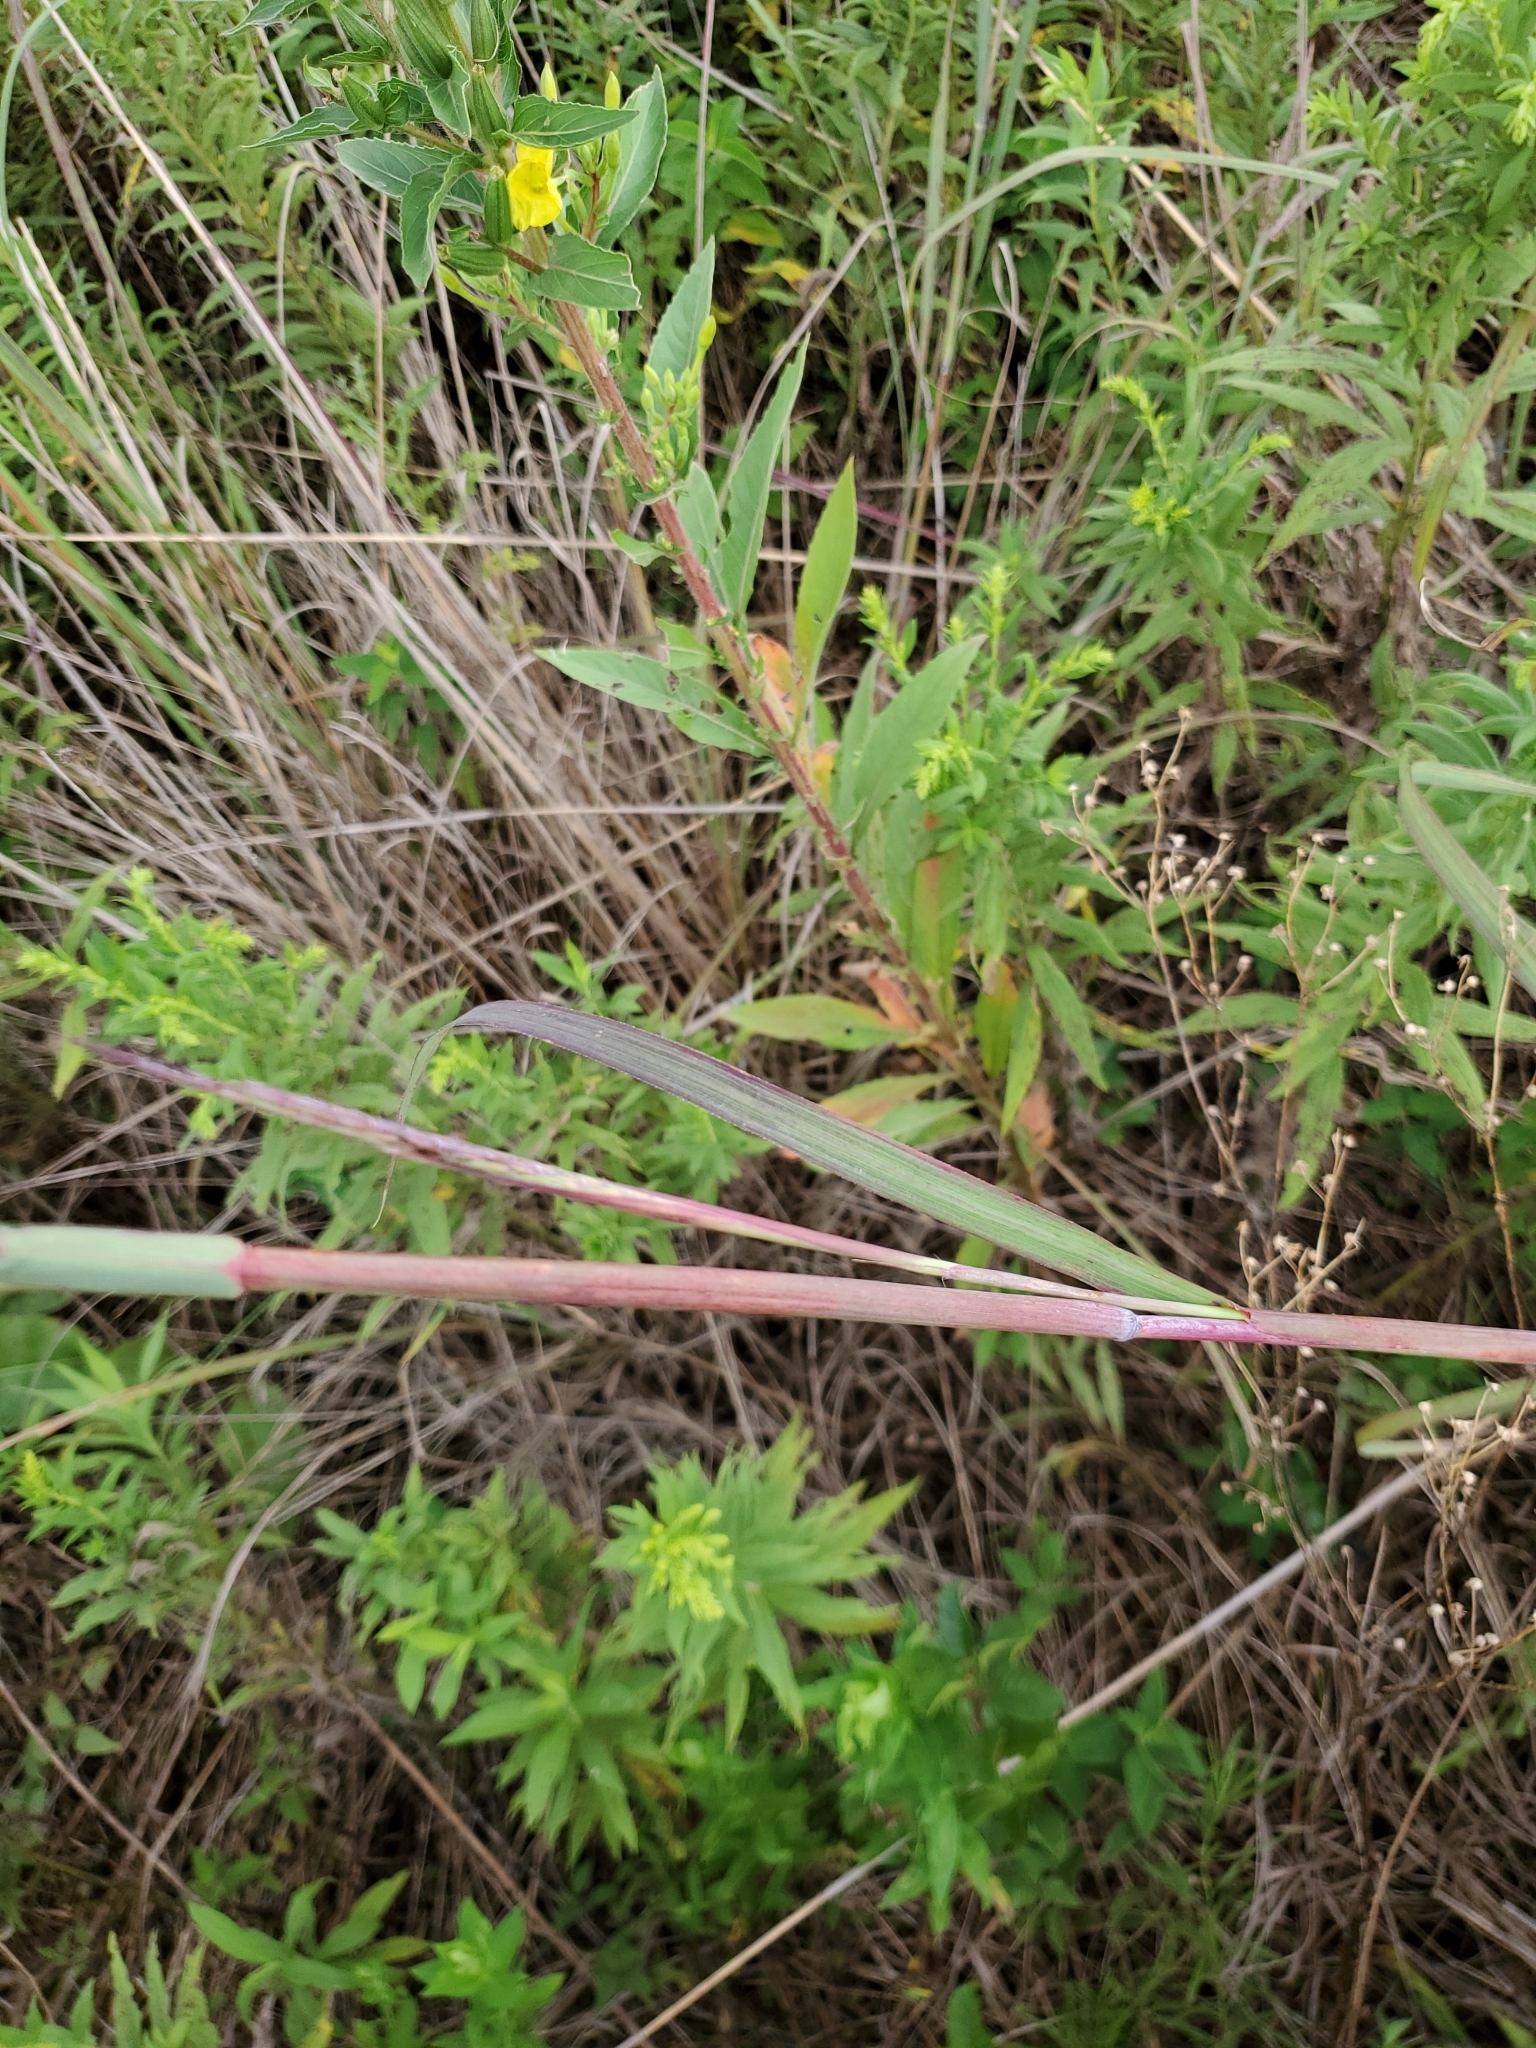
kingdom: Plantae
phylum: Tracheophyta
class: Liliopsida
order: Poales
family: Poaceae
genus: Andropogon
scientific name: Andropogon gerardi
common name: Big bluestem
